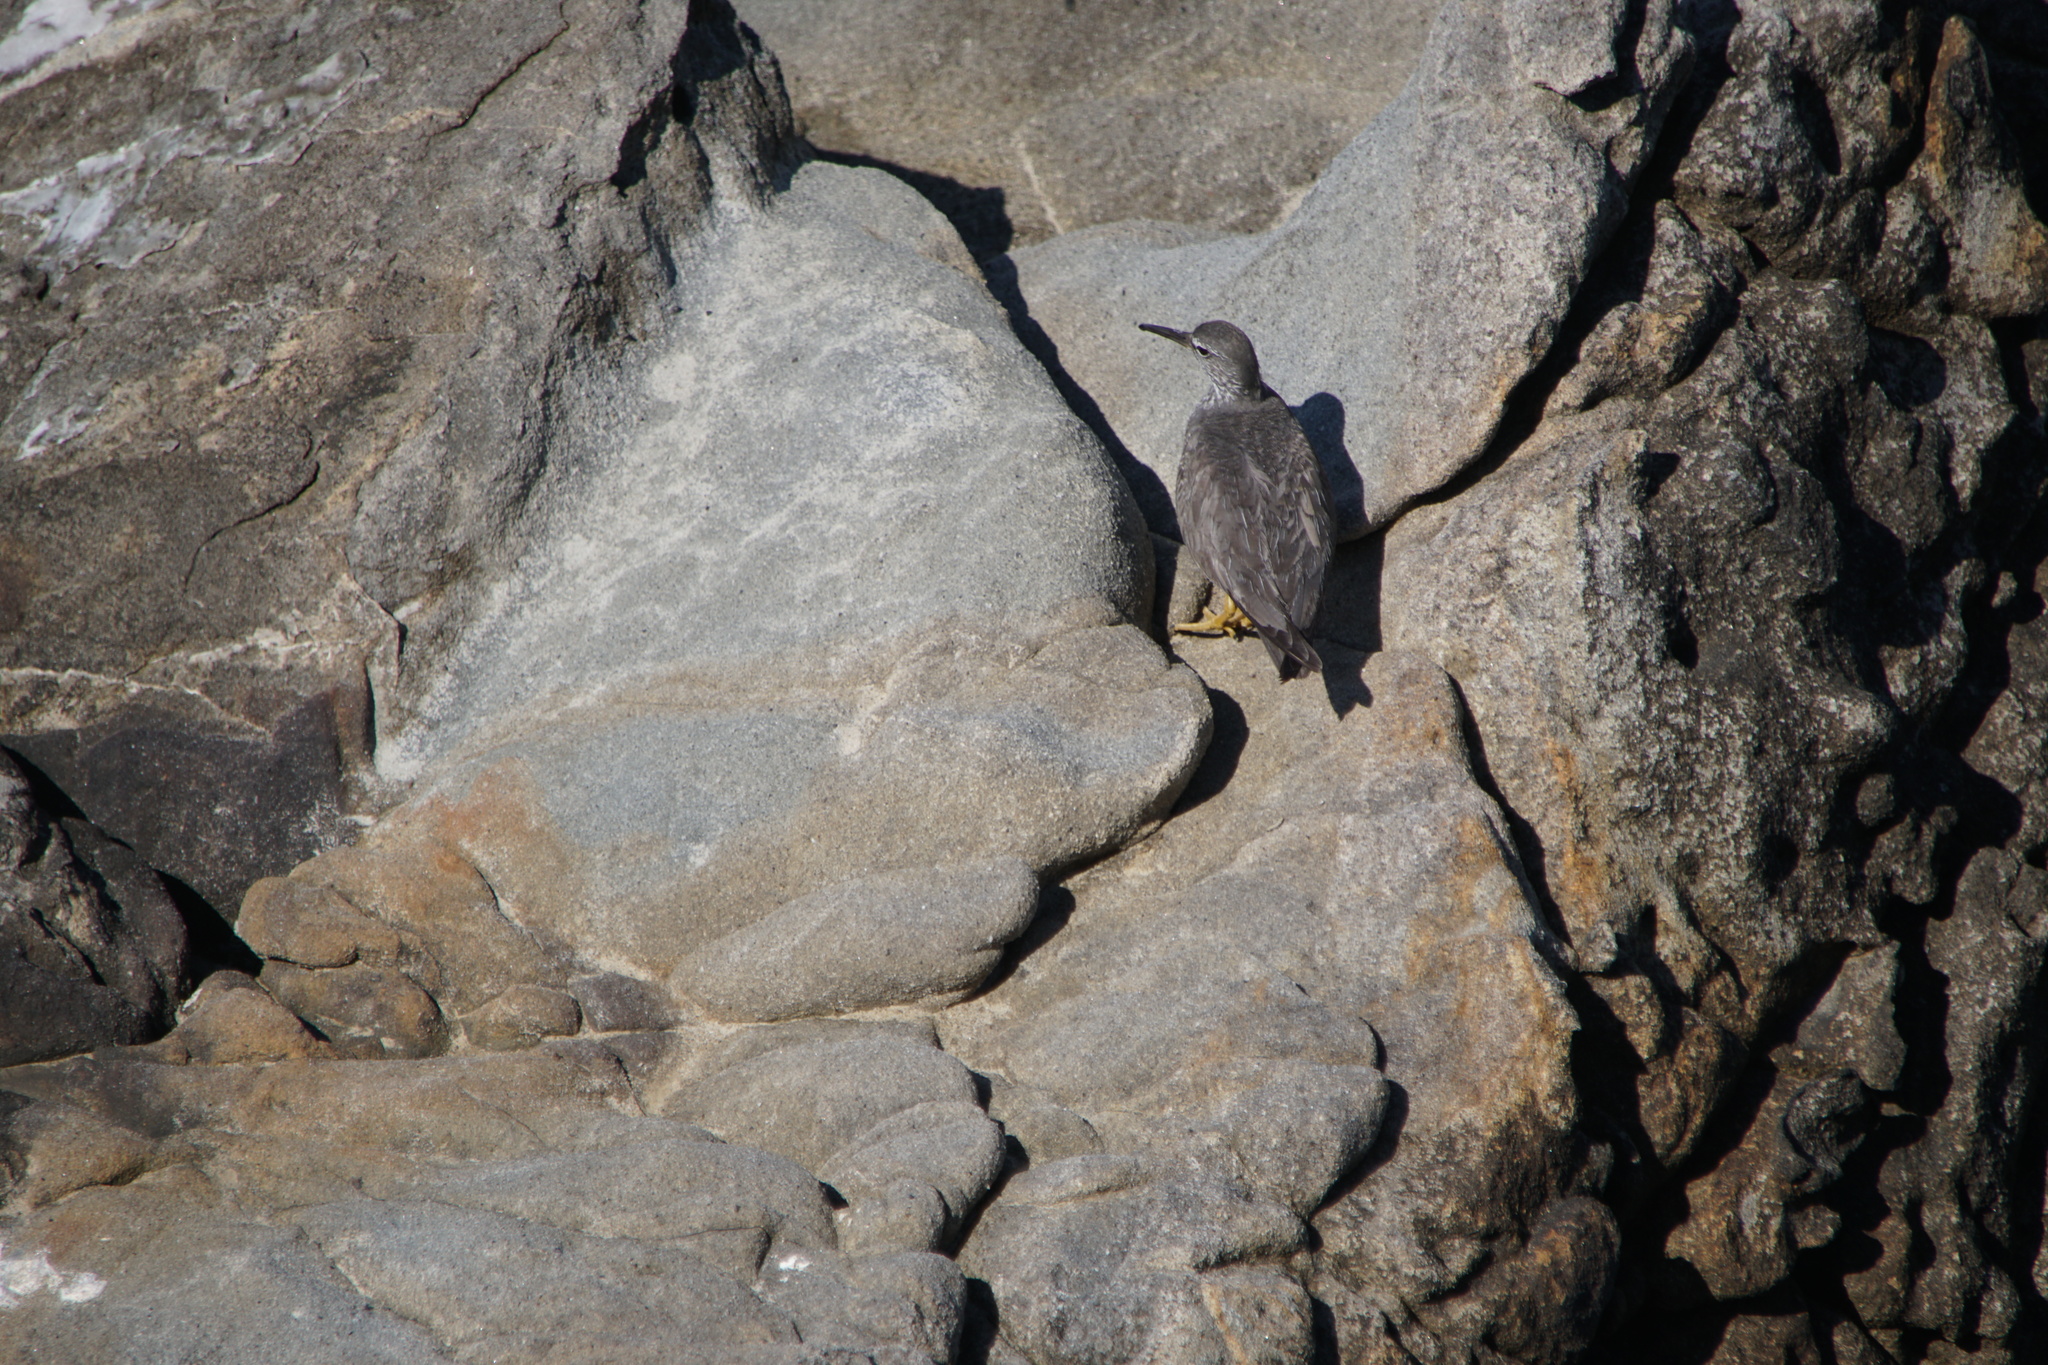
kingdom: Animalia
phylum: Chordata
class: Aves
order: Charadriiformes
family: Scolopacidae
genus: Tringa
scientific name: Tringa incana
